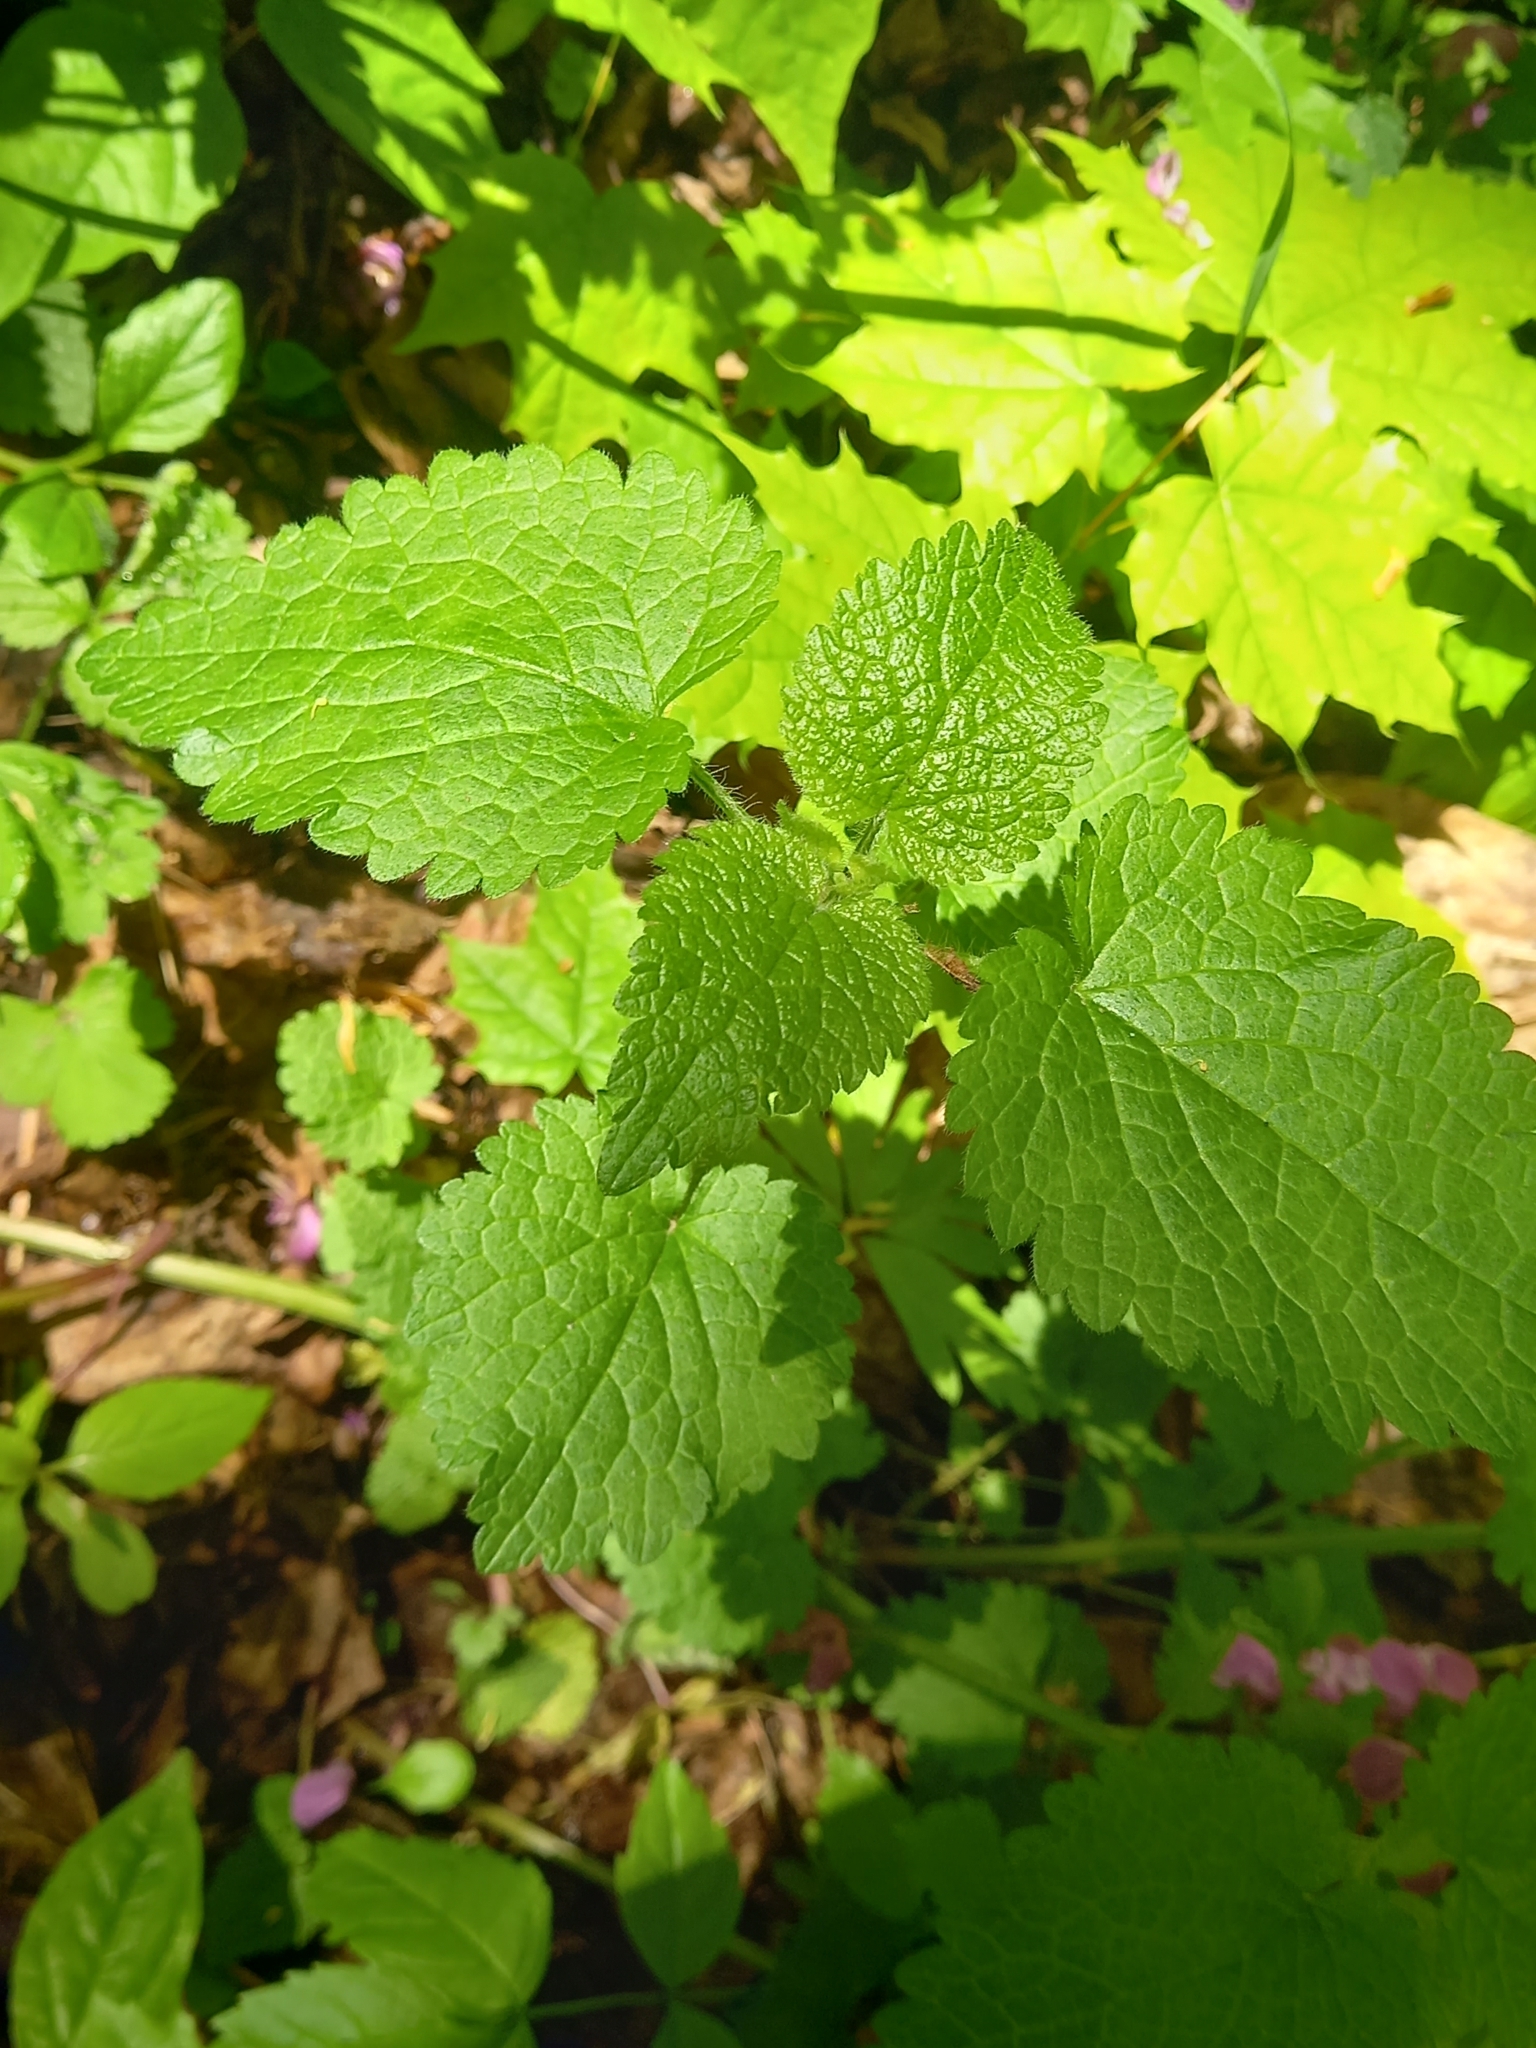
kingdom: Plantae
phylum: Tracheophyta
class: Magnoliopsida
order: Lamiales
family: Lamiaceae
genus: Lamium
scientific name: Lamium maculatum
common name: Spotted dead-nettle
